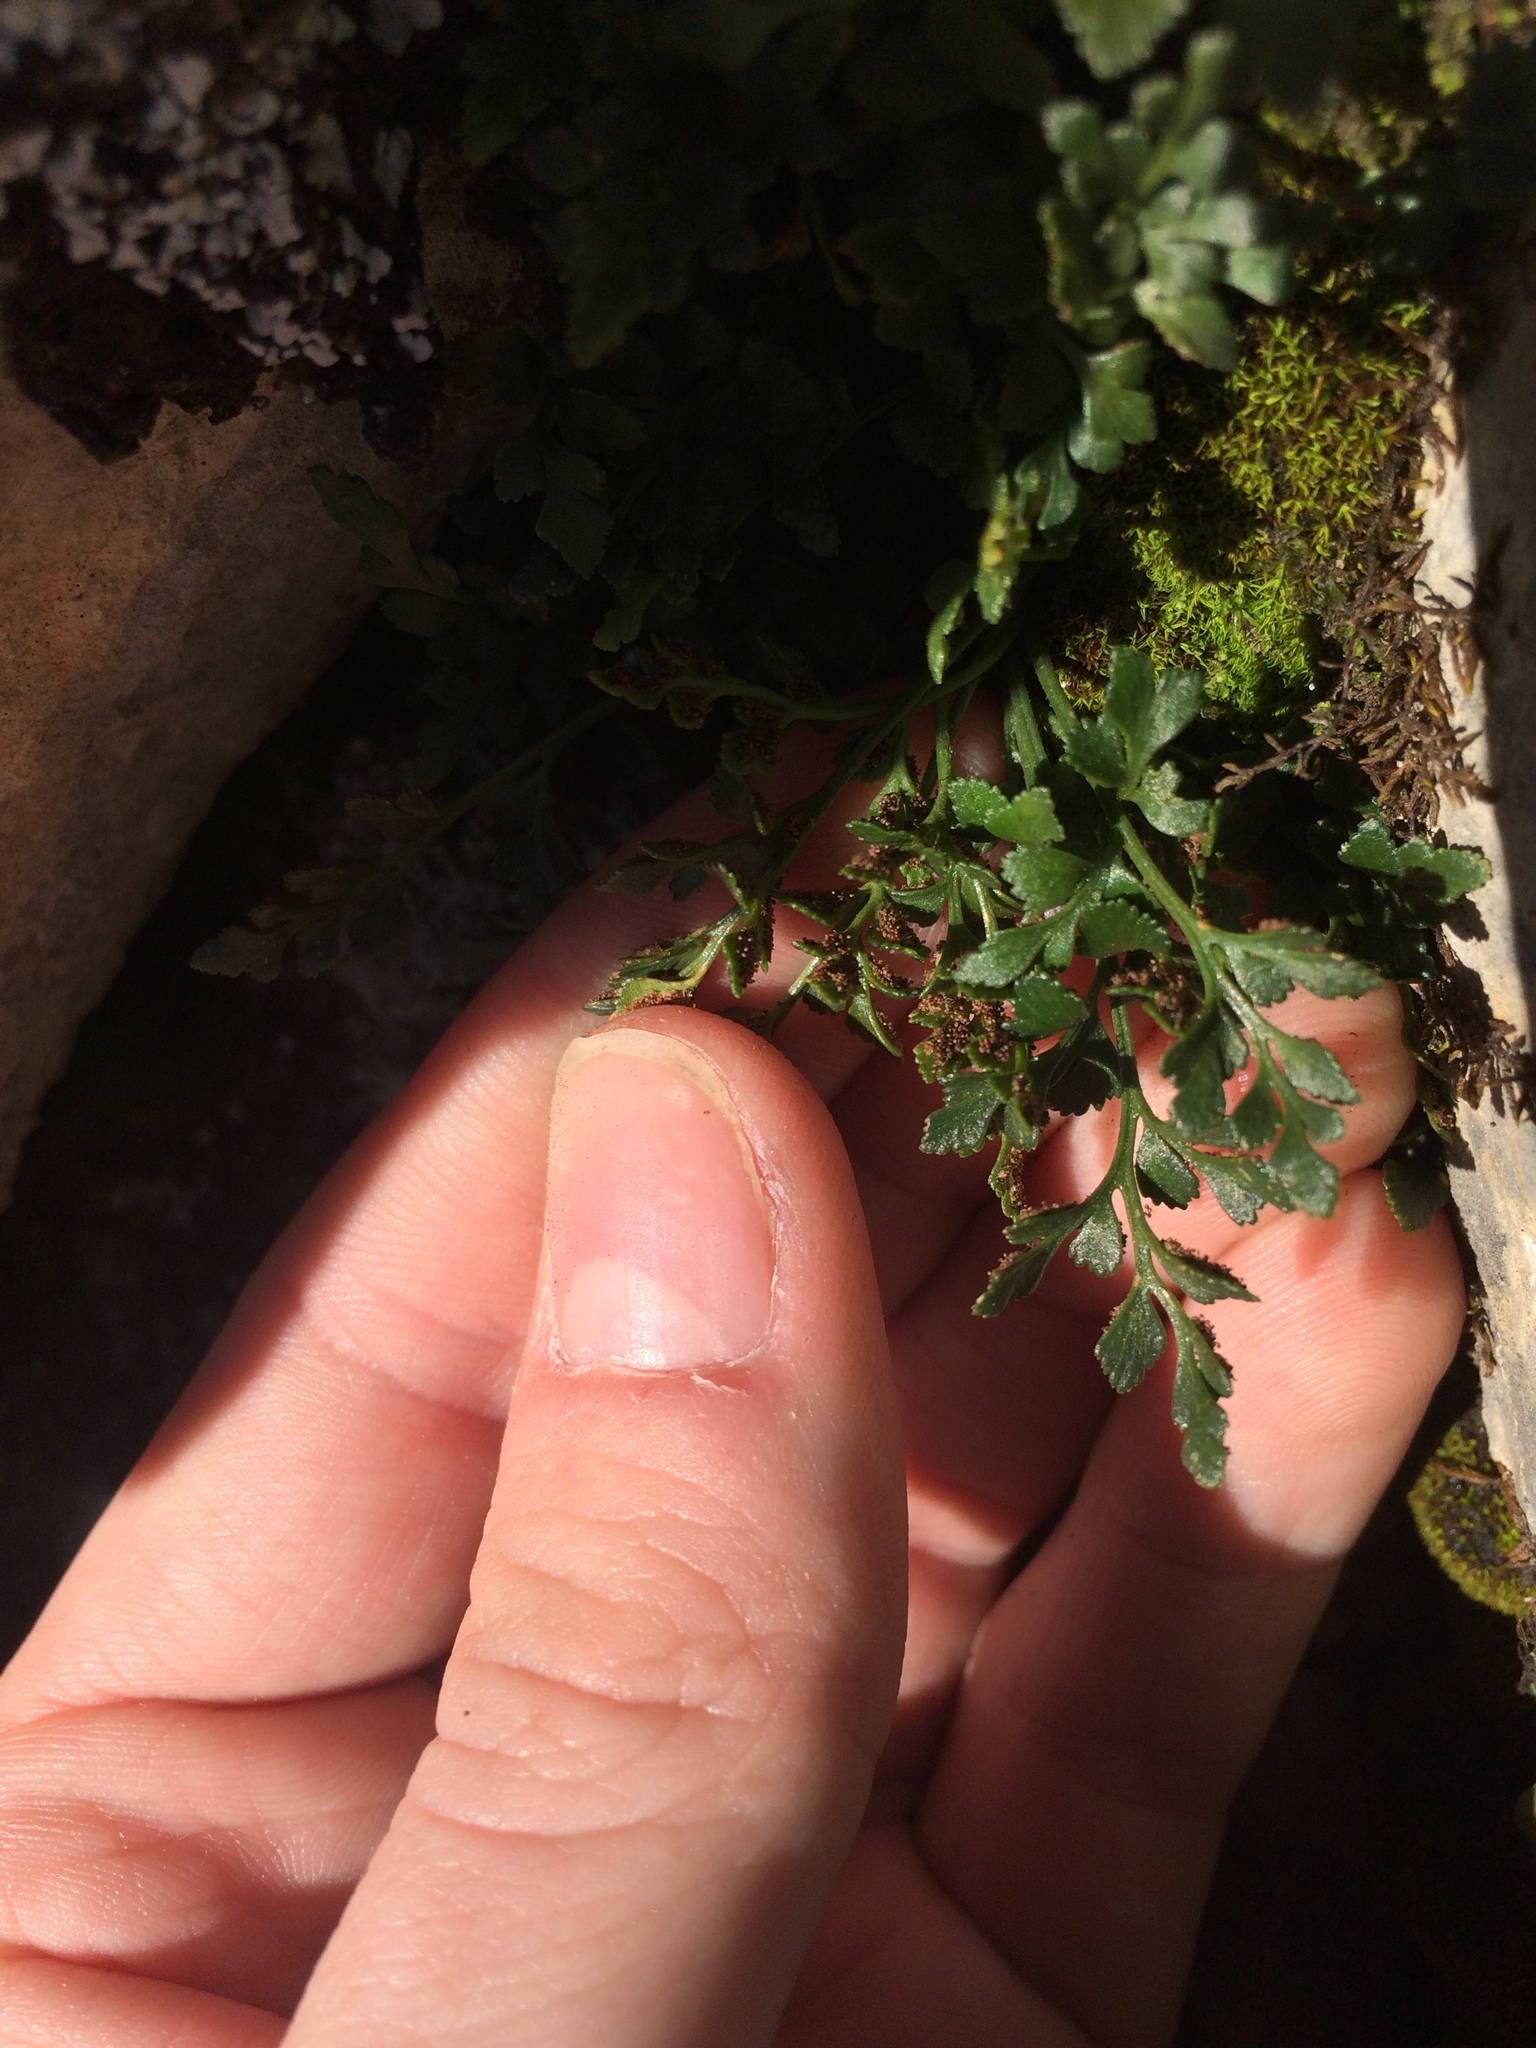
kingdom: Plantae
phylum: Tracheophyta
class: Polypodiopsida
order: Polypodiales
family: Aspleniaceae
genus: Asplenium
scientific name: Asplenium ruta-muraria
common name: Wall-rue
